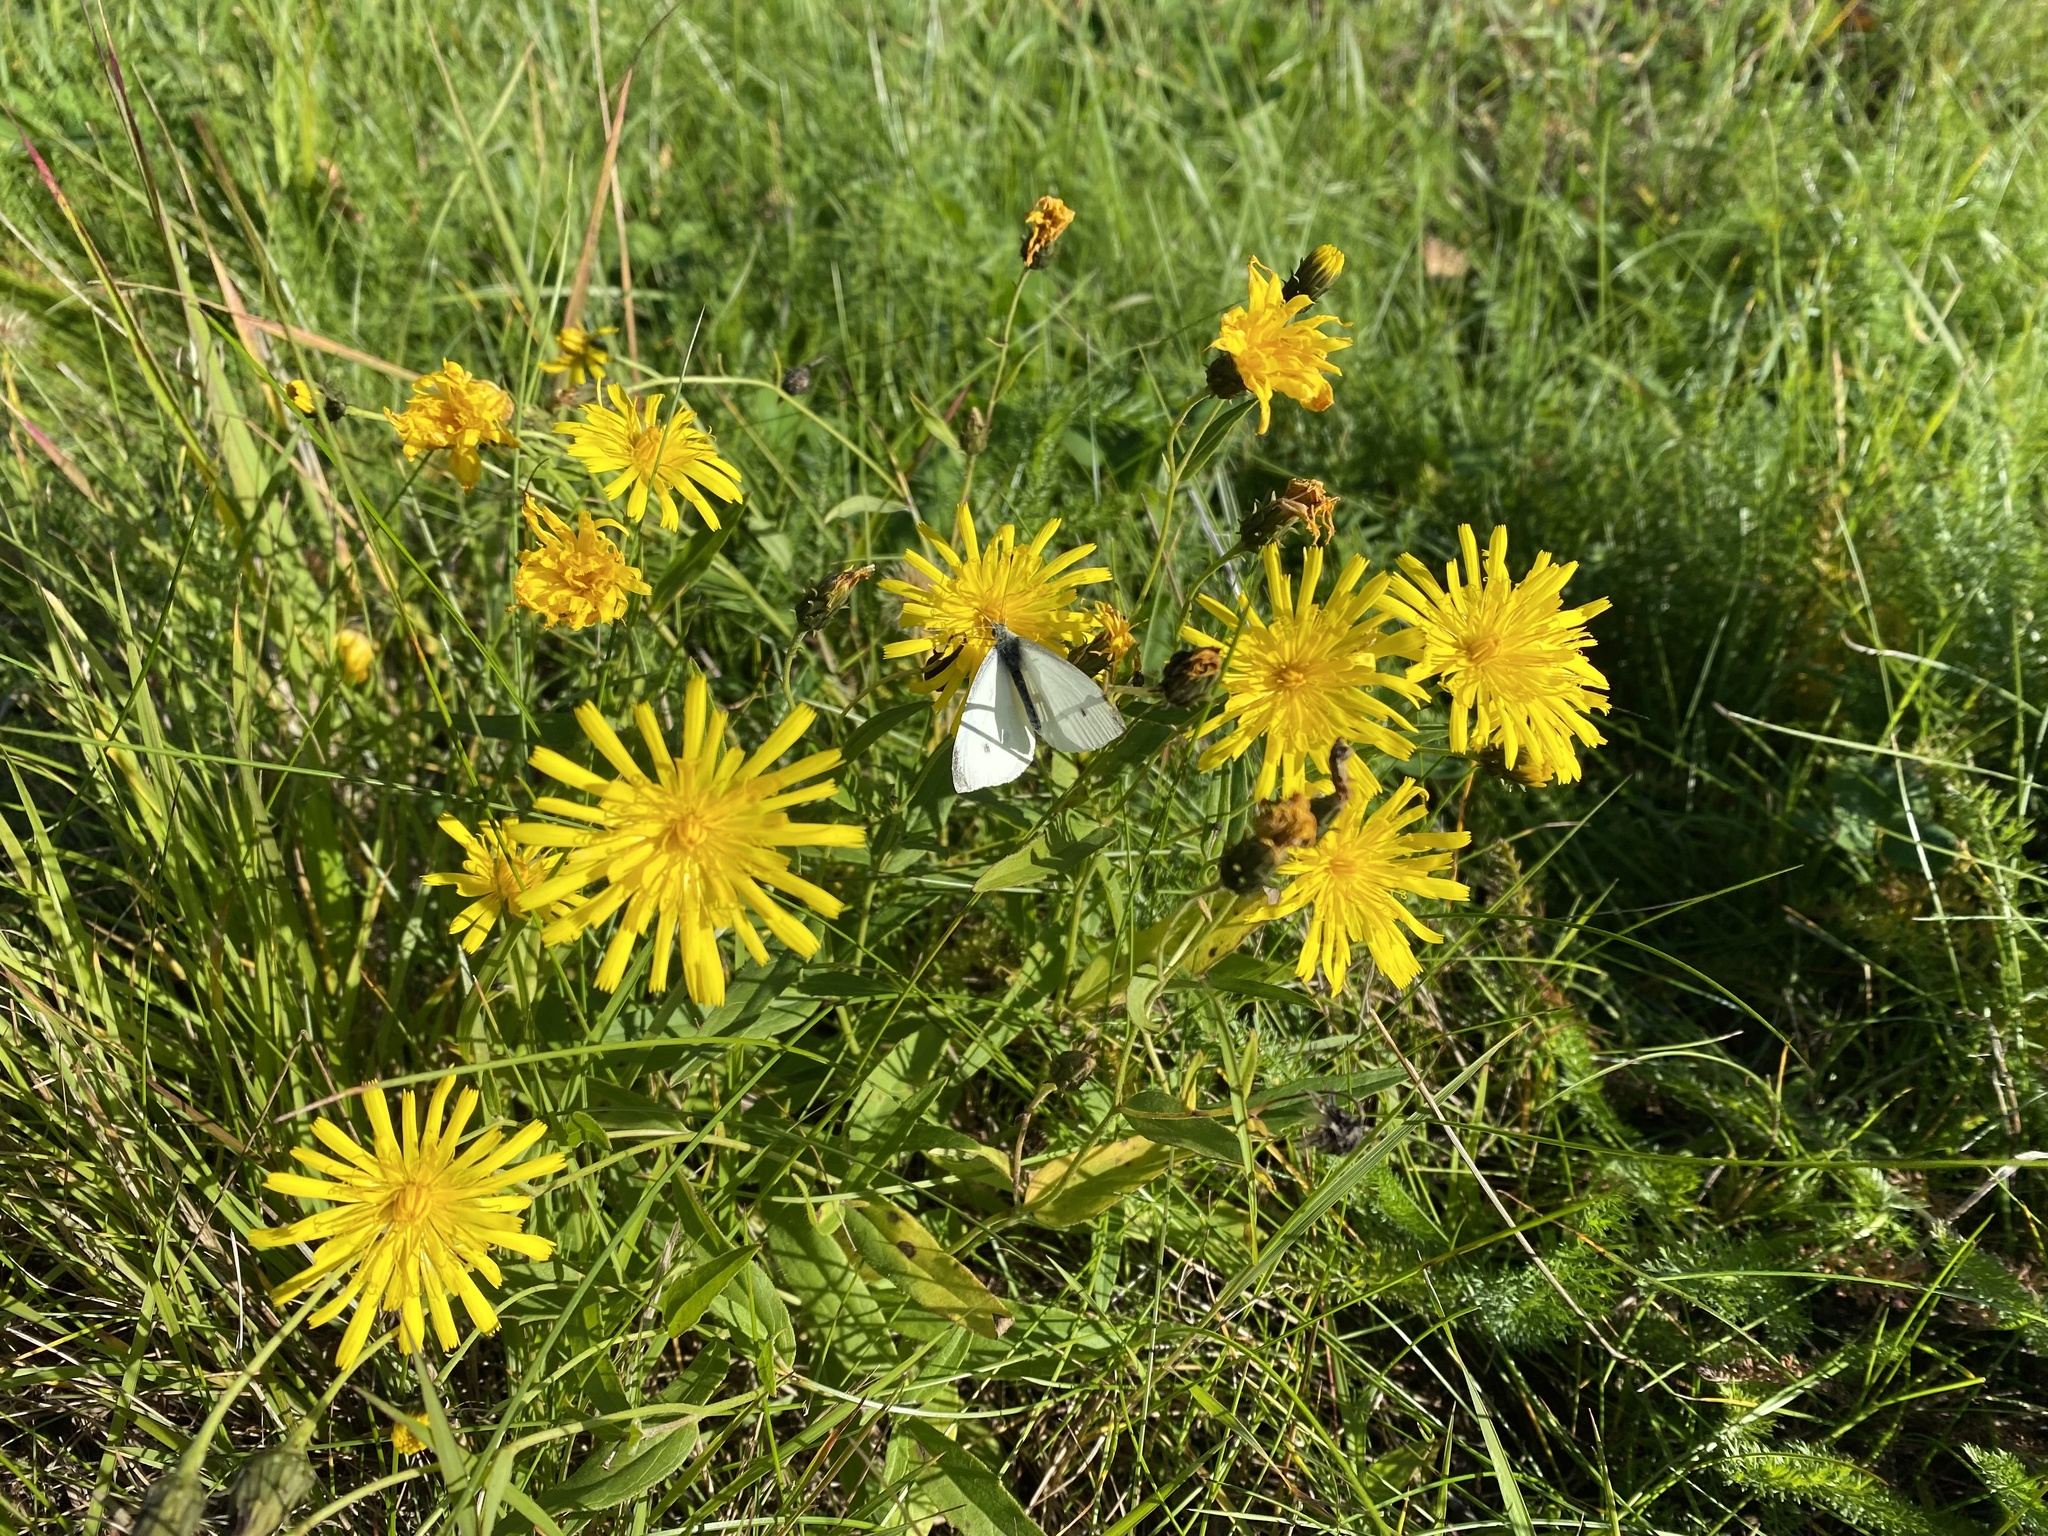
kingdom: Animalia
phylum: Arthropoda
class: Insecta
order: Lepidoptera
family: Pieridae
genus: Pieris
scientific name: Pieris rapae
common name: Small white
